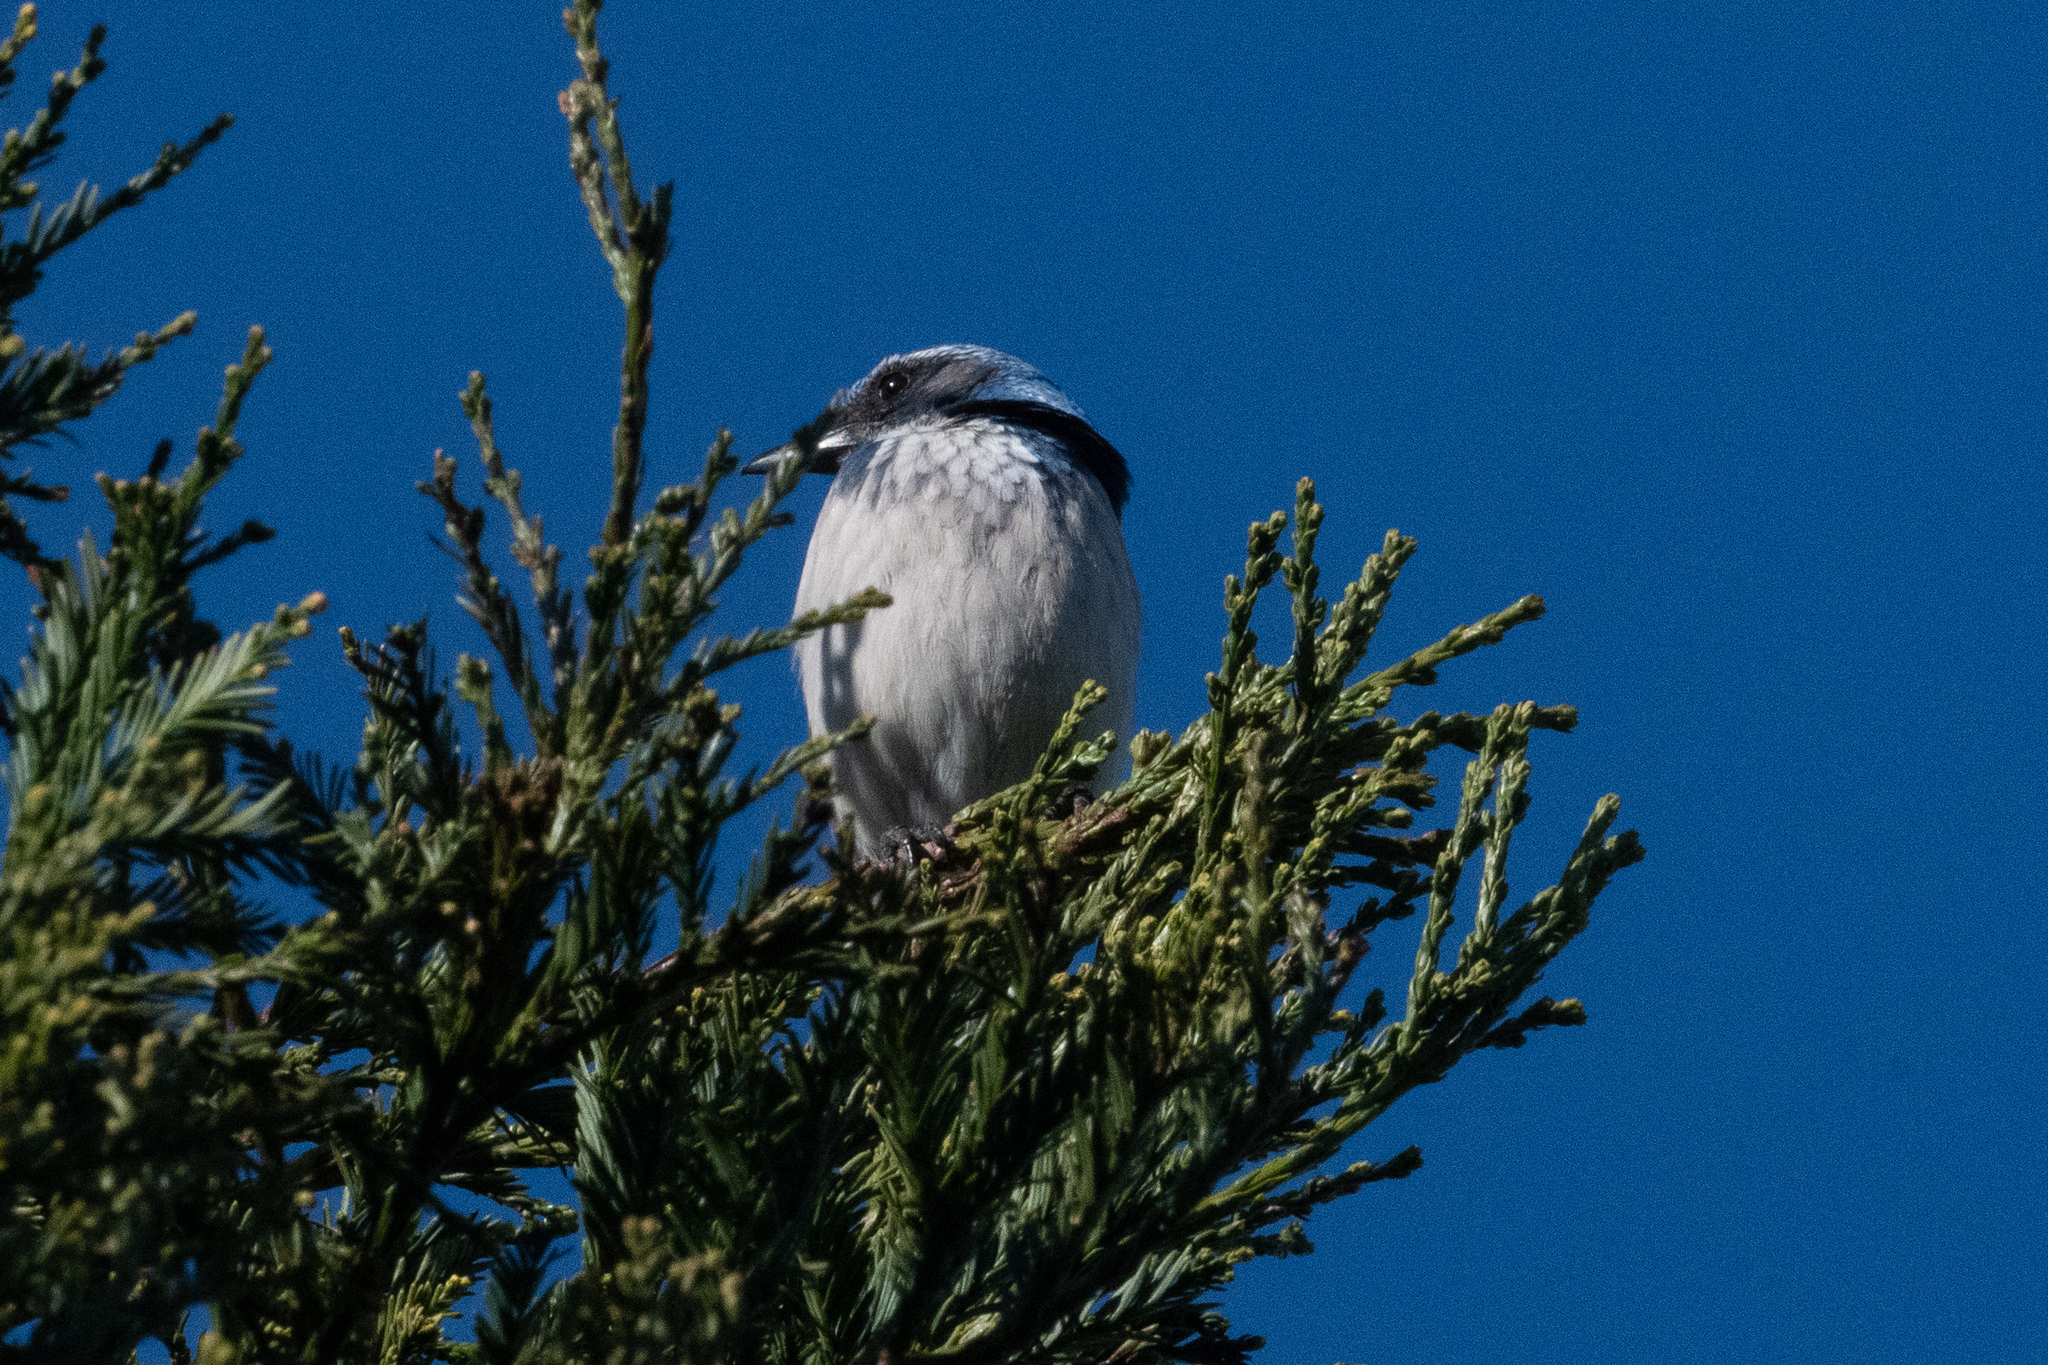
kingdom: Animalia
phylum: Chordata
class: Aves
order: Passeriformes
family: Corvidae
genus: Aphelocoma
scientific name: Aphelocoma californica
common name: California scrub-jay
